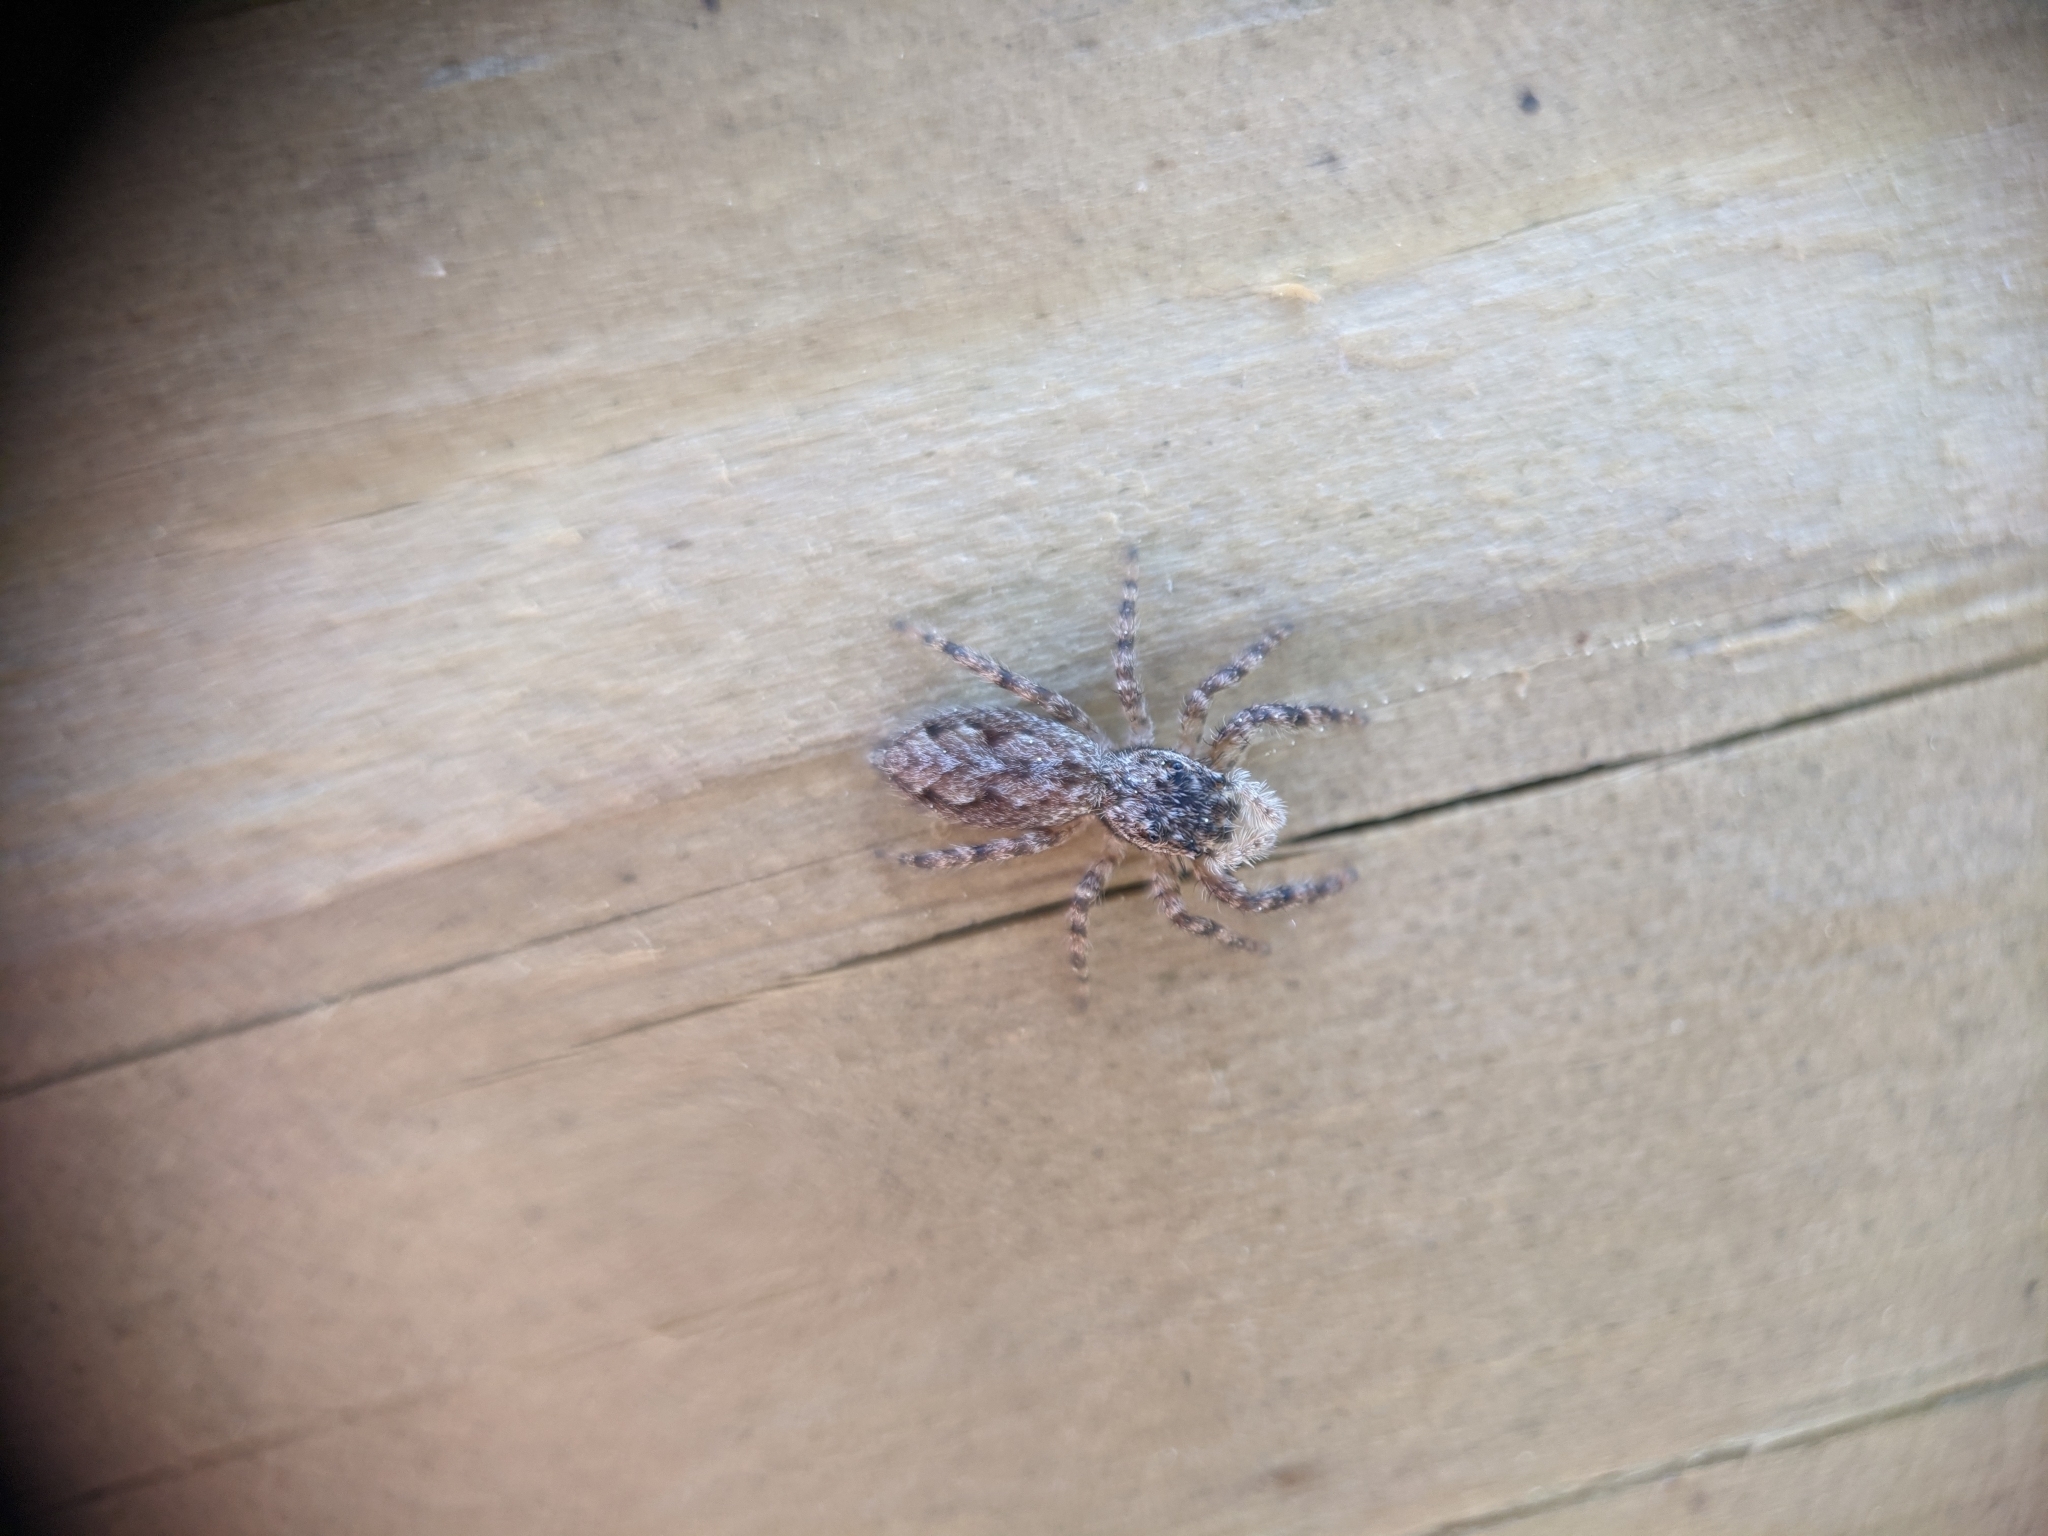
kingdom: Animalia
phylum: Arthropoda
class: Arachnida
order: Araneae
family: Salticidae
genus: Platycryptus
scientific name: Platycryptus undatus
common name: Tan jumping spider
